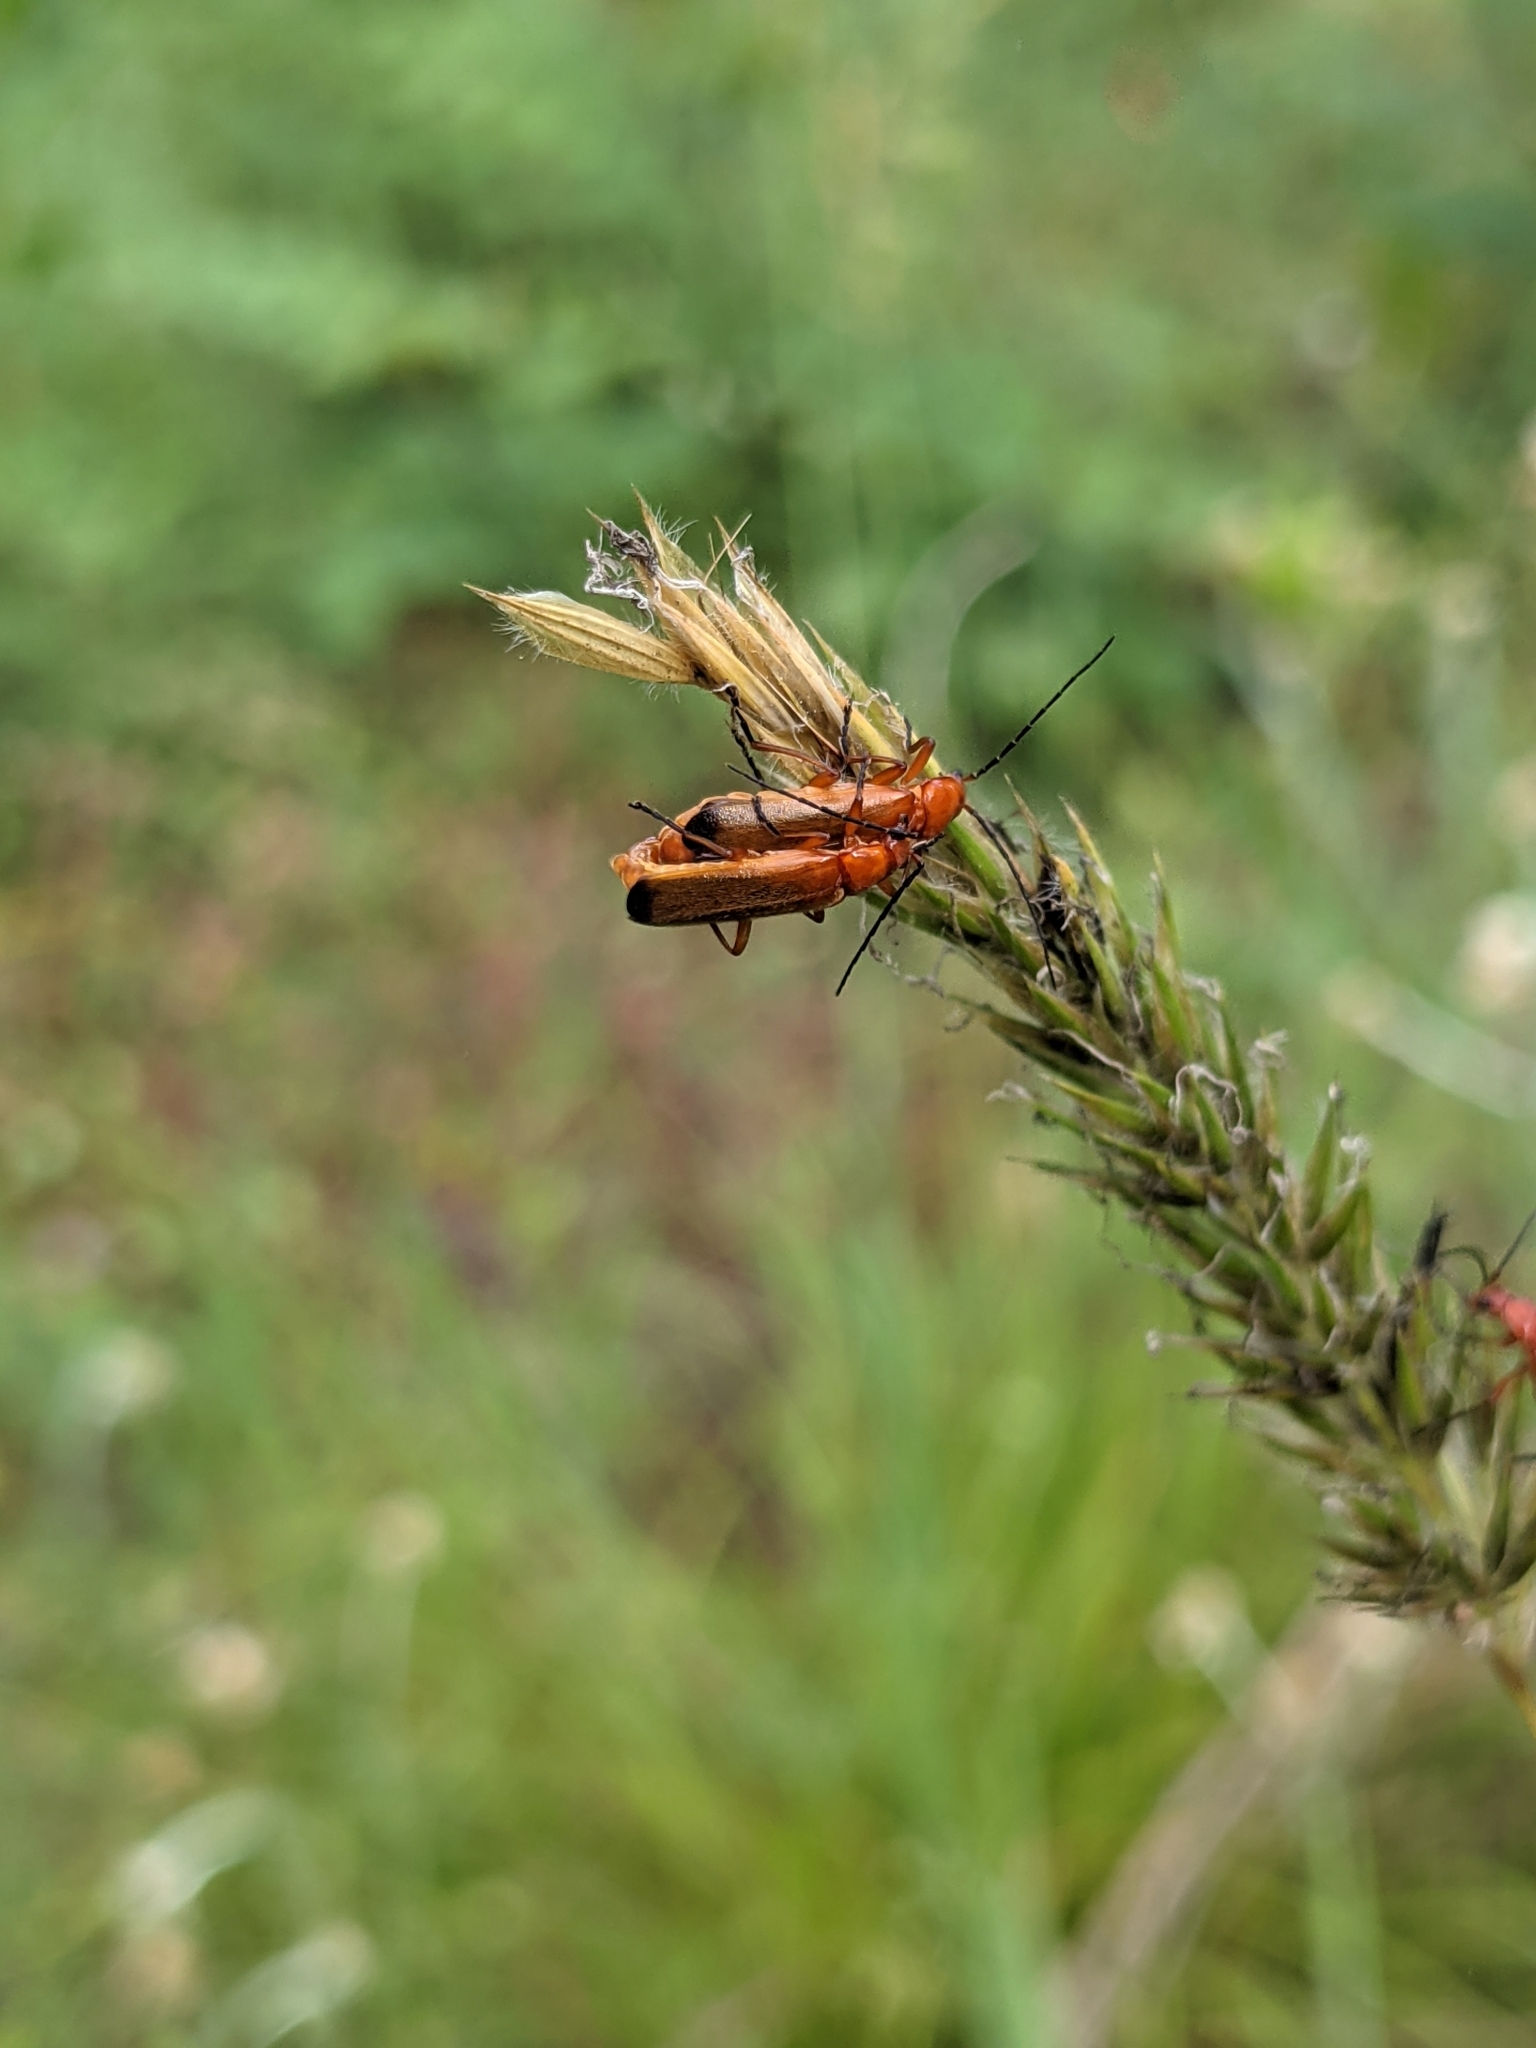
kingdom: Animalia
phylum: Arthropoda
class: Insecta
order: Coleoptera
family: Cantharidae
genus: Rhagonycha
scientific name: Rhagonycha fulva
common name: Common red soldier beetle
